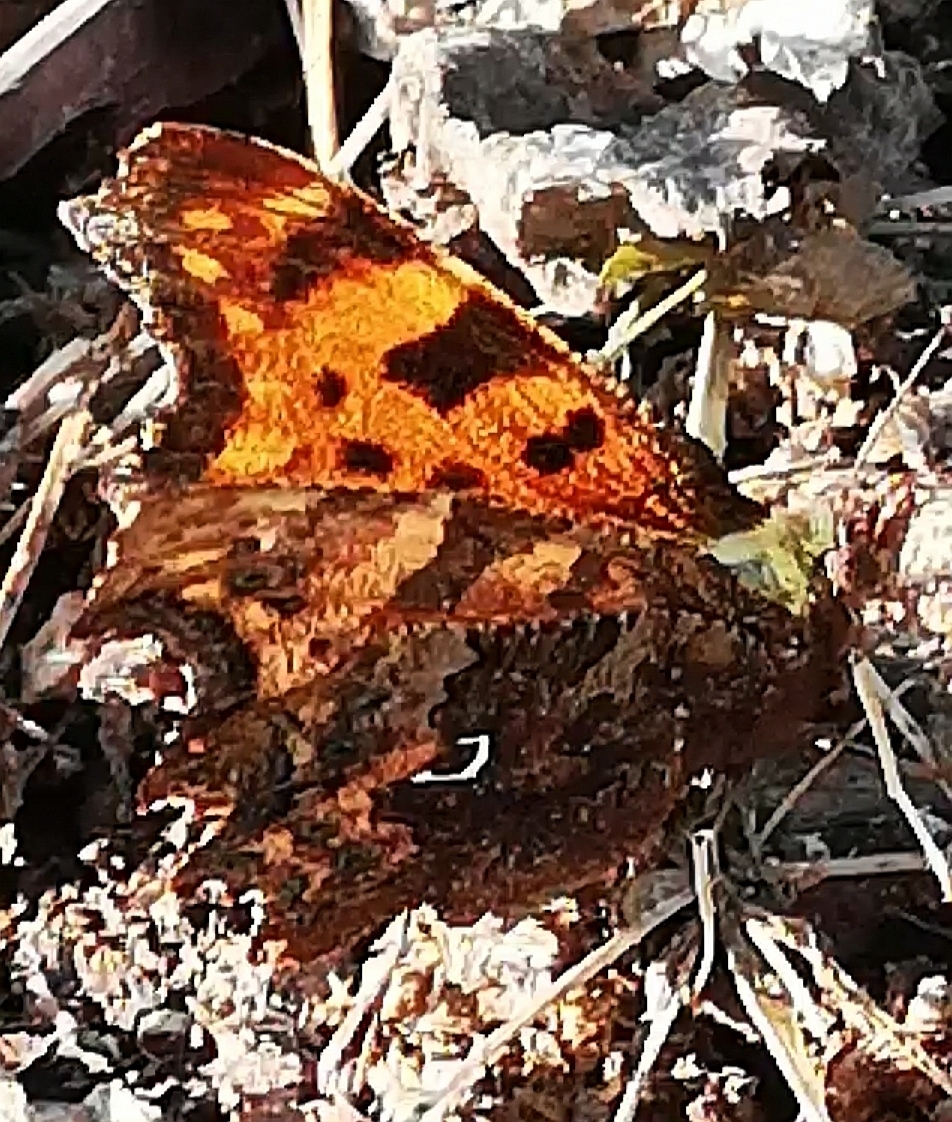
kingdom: Animalia
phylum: Arthropoda
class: Insecta
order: Lepidoptera
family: Nymphalidae
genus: Polygonia
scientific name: Polygonia c-album
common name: Comma
